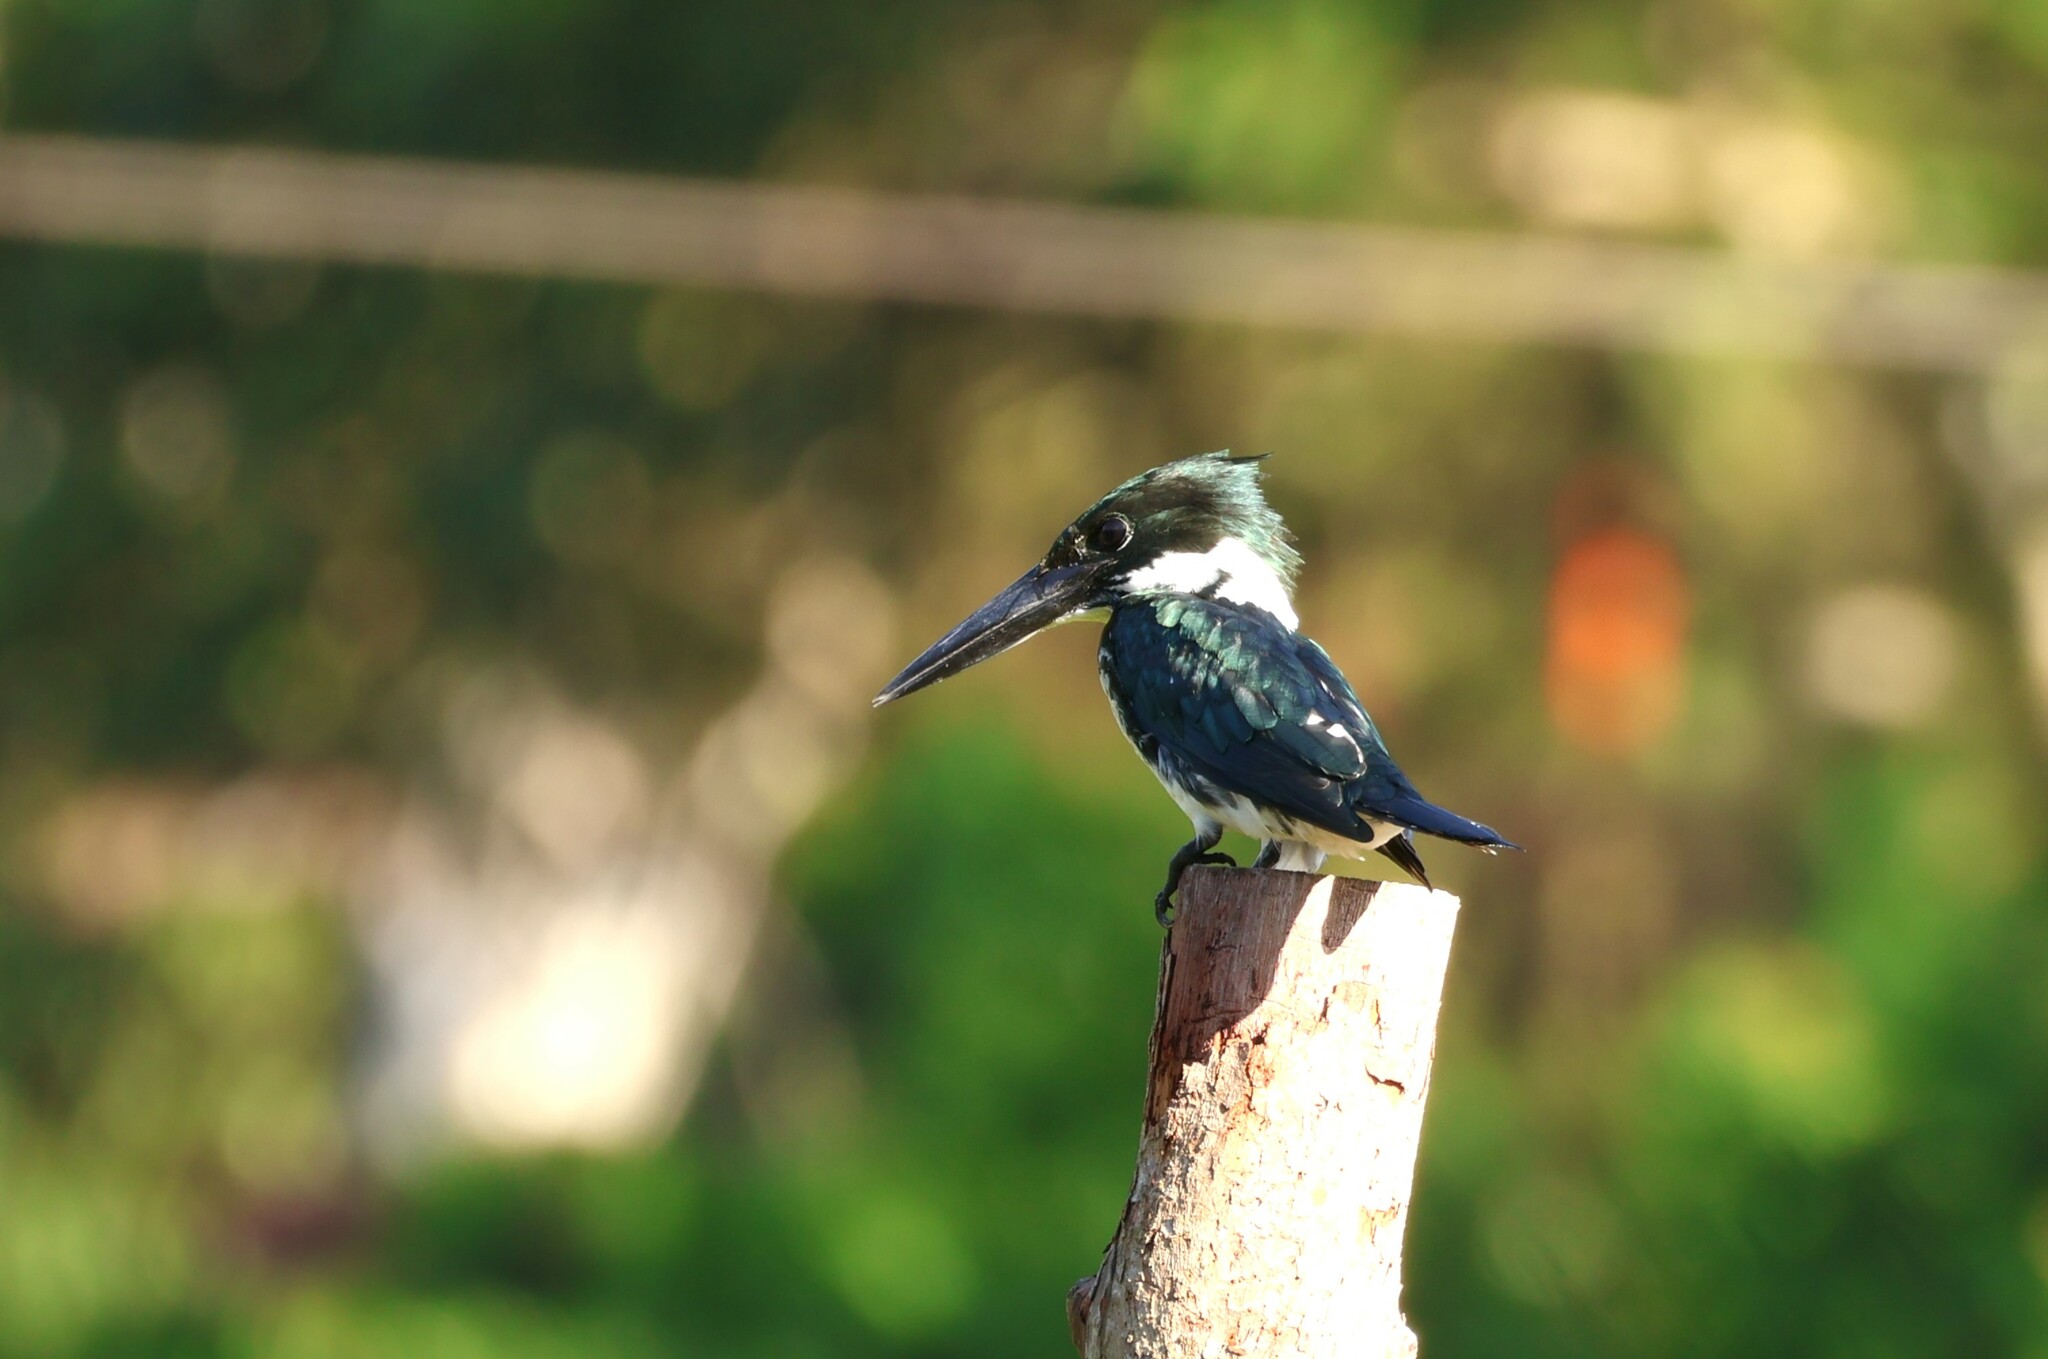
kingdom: Animalia
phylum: Chordata
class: Aves
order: Coraciiformes
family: Alcedinidae
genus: Chloroceryle
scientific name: Chloroceryle amazona
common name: Amazon kingfisher
